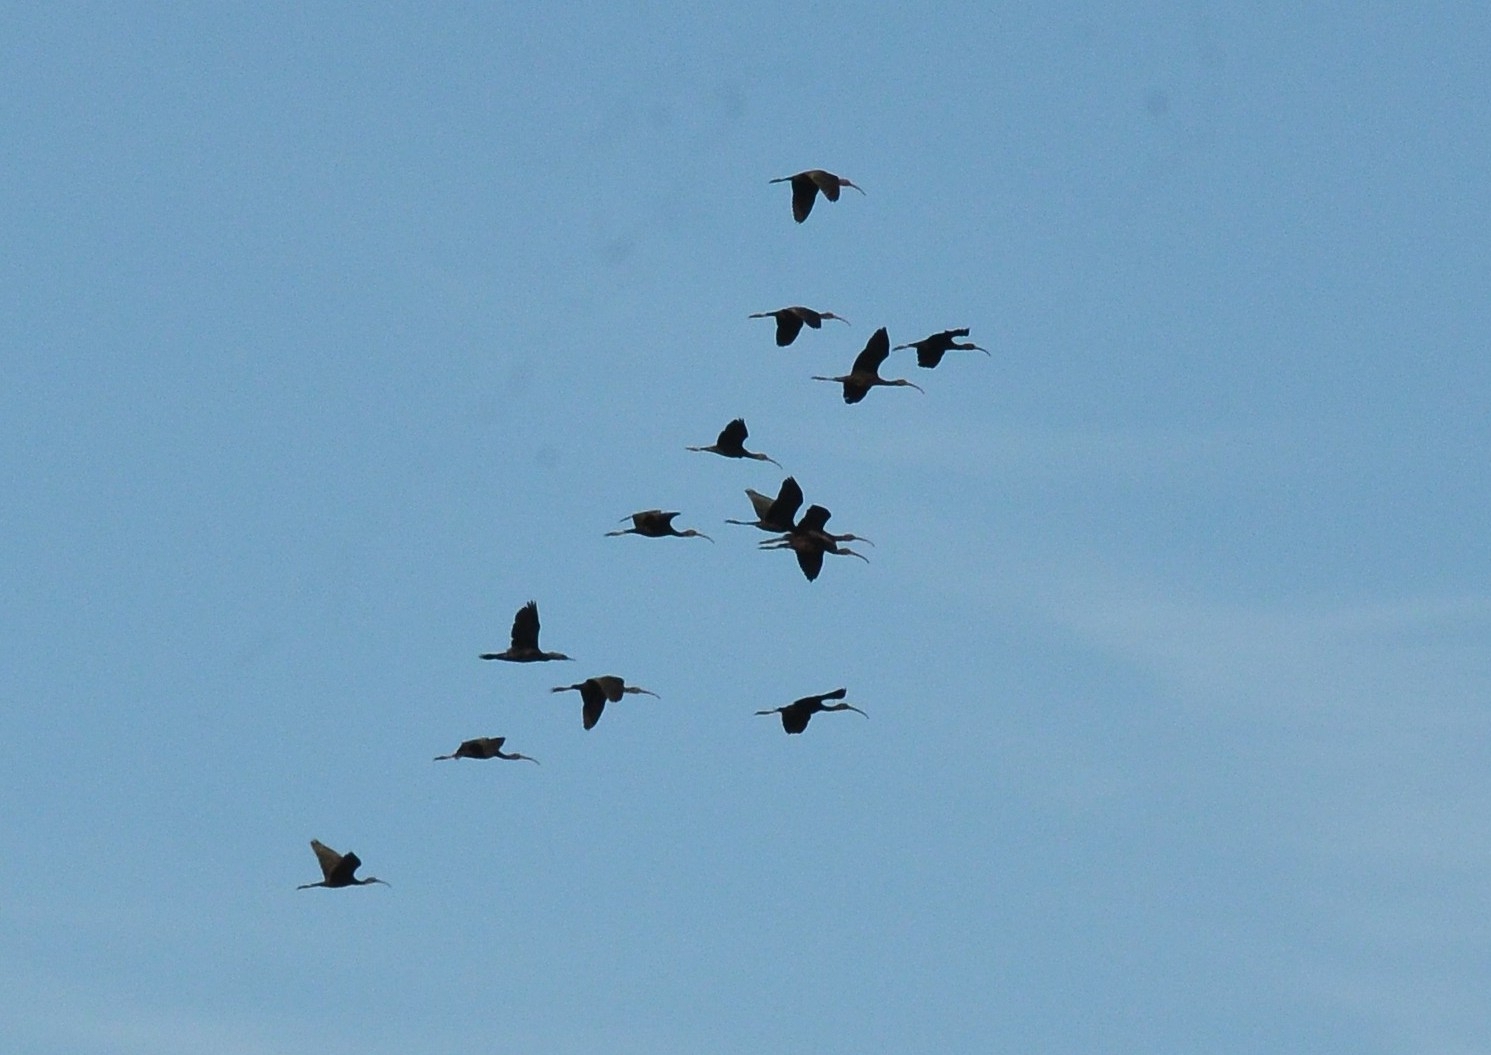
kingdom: Animalia
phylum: Chordata
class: Aves
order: Pelecaniformes
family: Threskiornithidae
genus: Plegadis
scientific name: Plegadis falcinellus
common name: Glossy ibis
